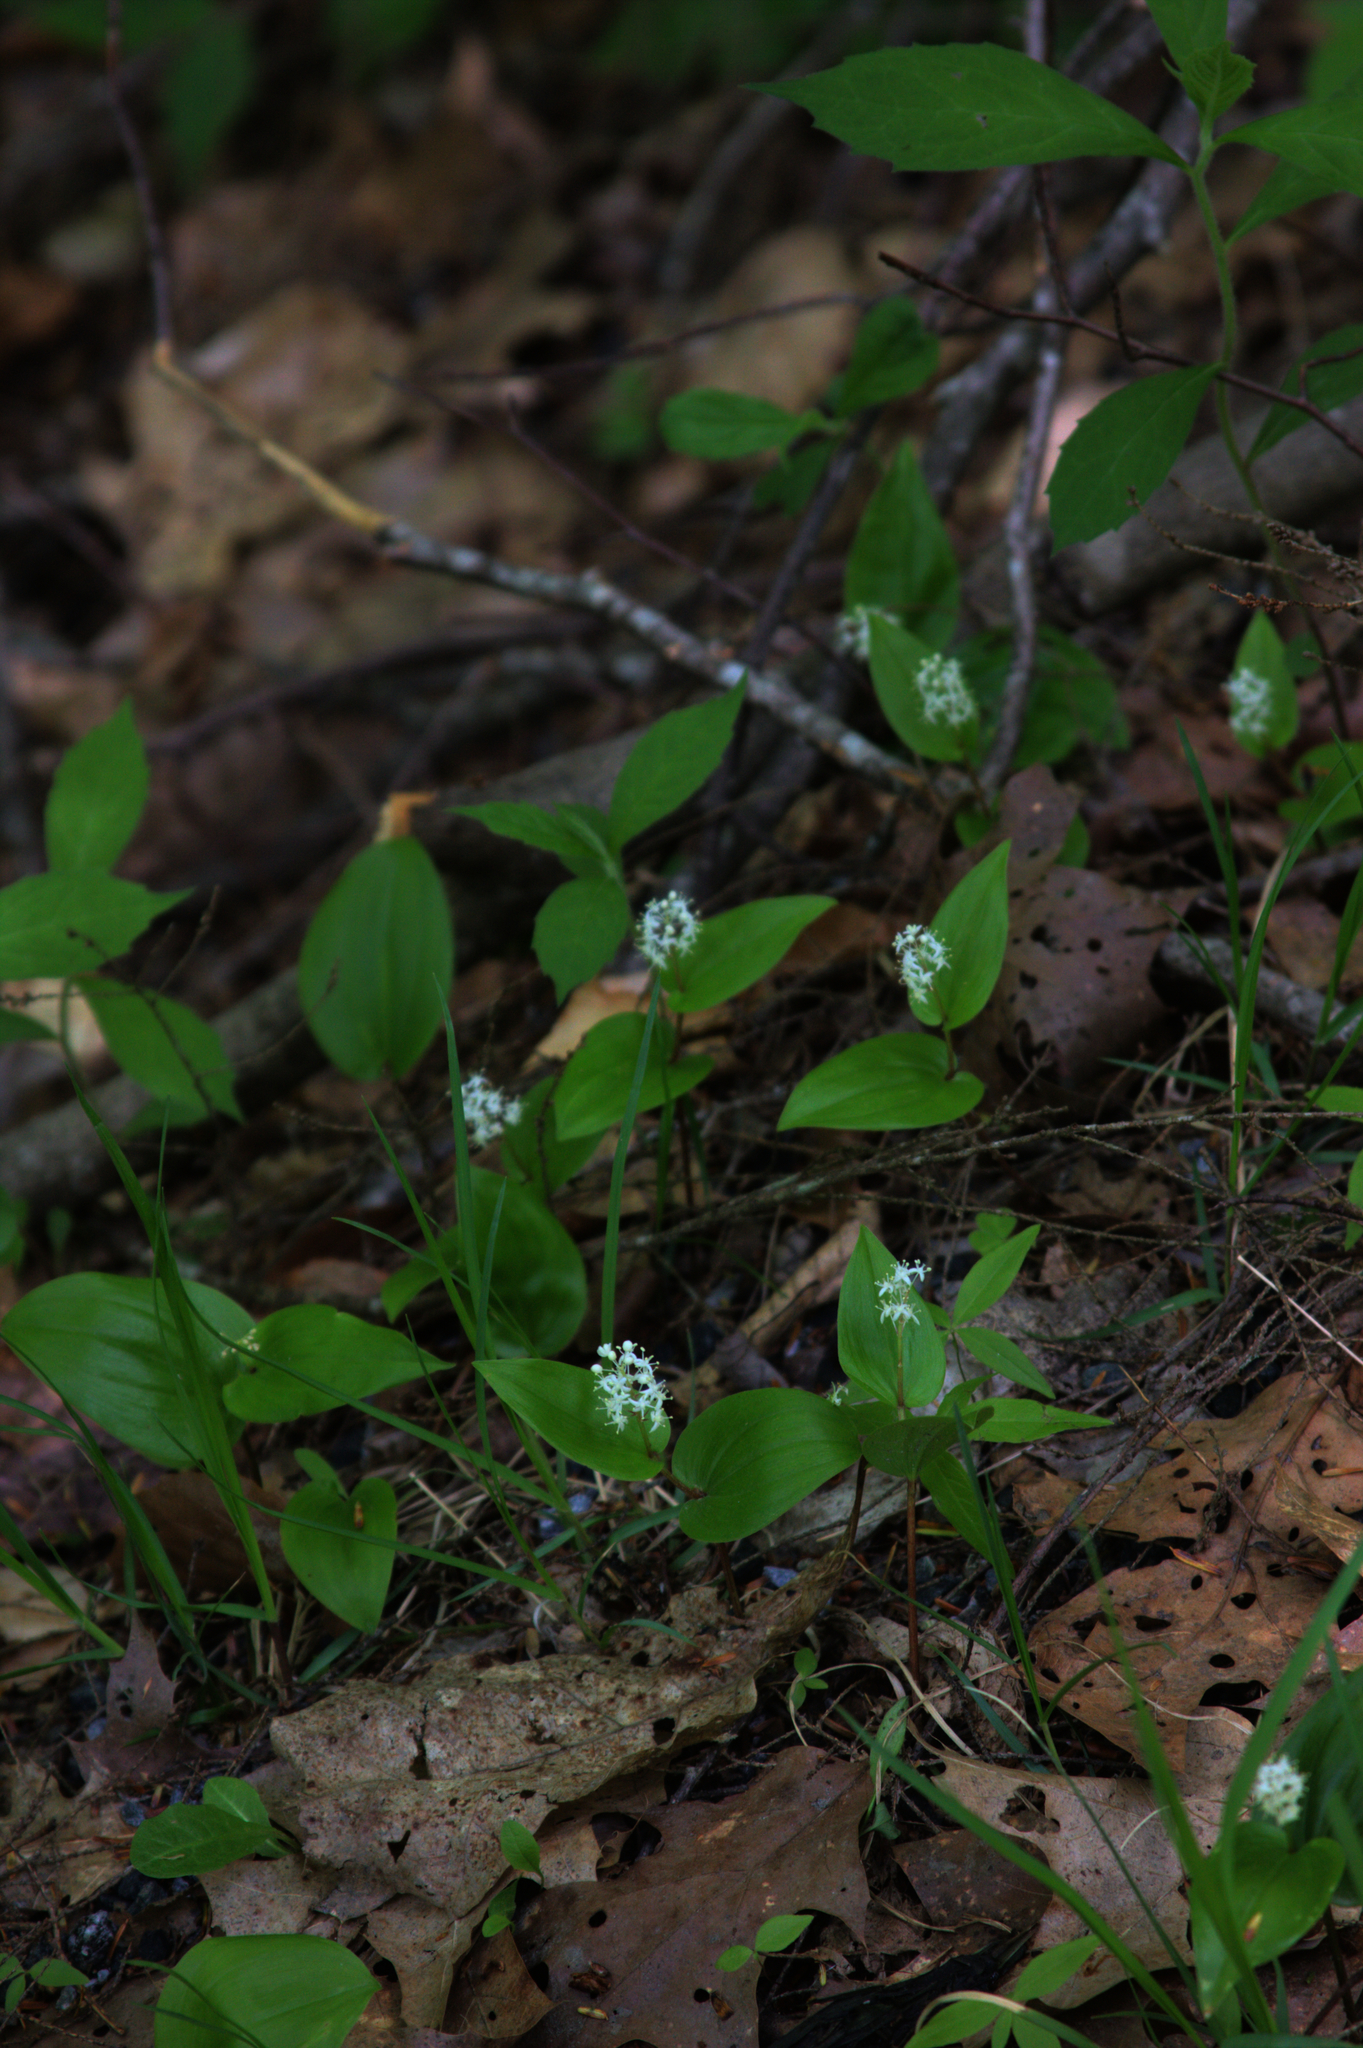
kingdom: Plantae
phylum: Tracheophyta
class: Liliopsida
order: Asparagales
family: Asparagaceae
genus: Maianthemum
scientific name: Maianthemum canadense
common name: False lily-of-the-valley
